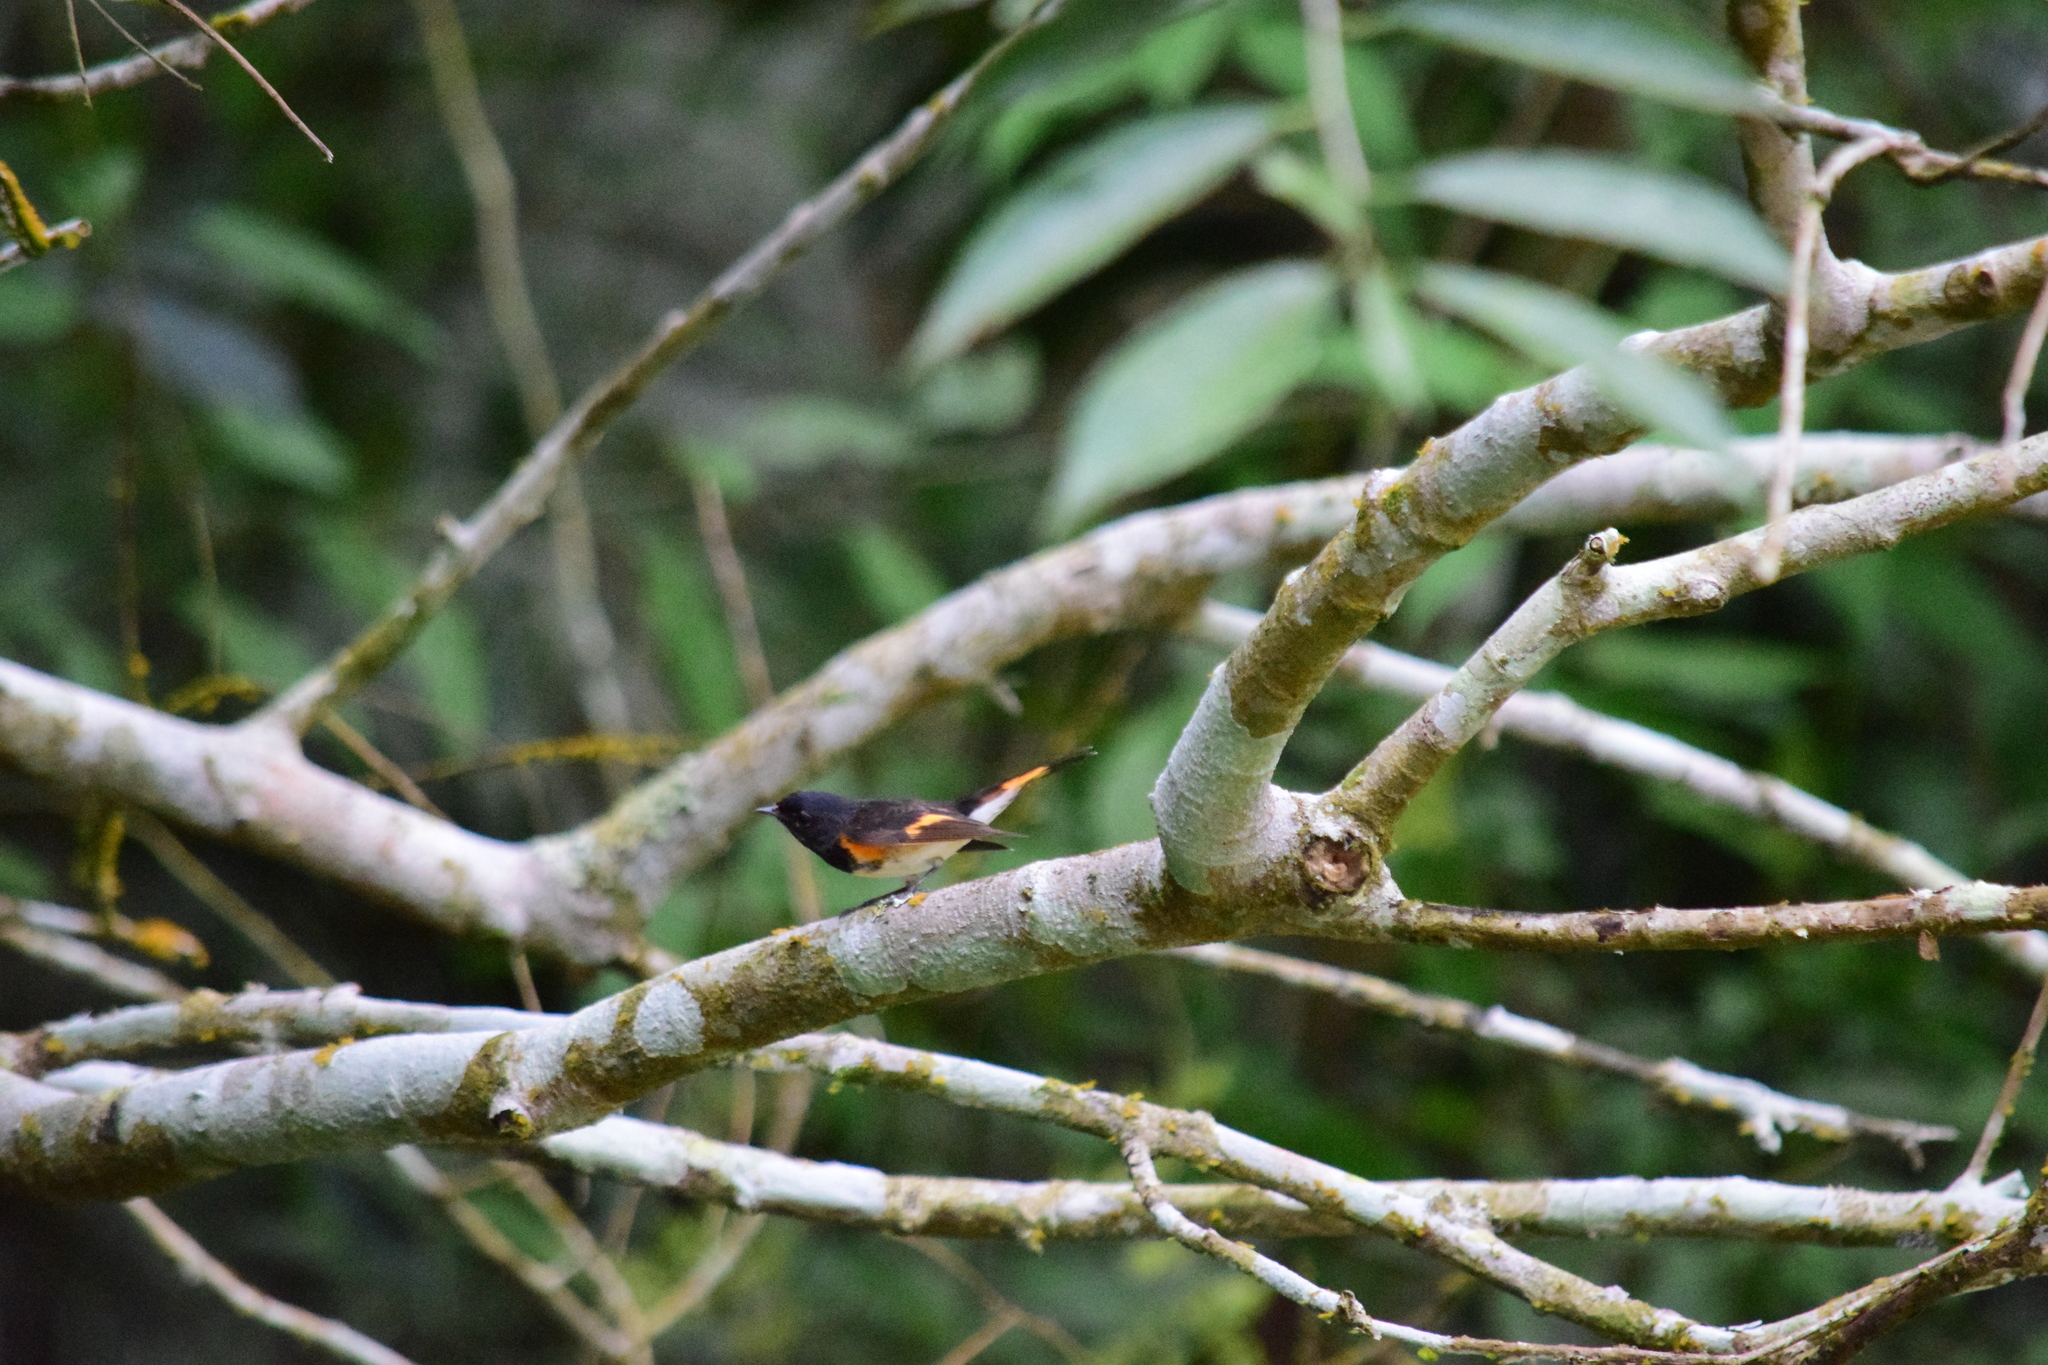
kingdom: Animalia
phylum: Chordata
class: Aves
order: Passeriformes
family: Parulidae
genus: Setophaga
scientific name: Setophaga ruticilla
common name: American redstart
